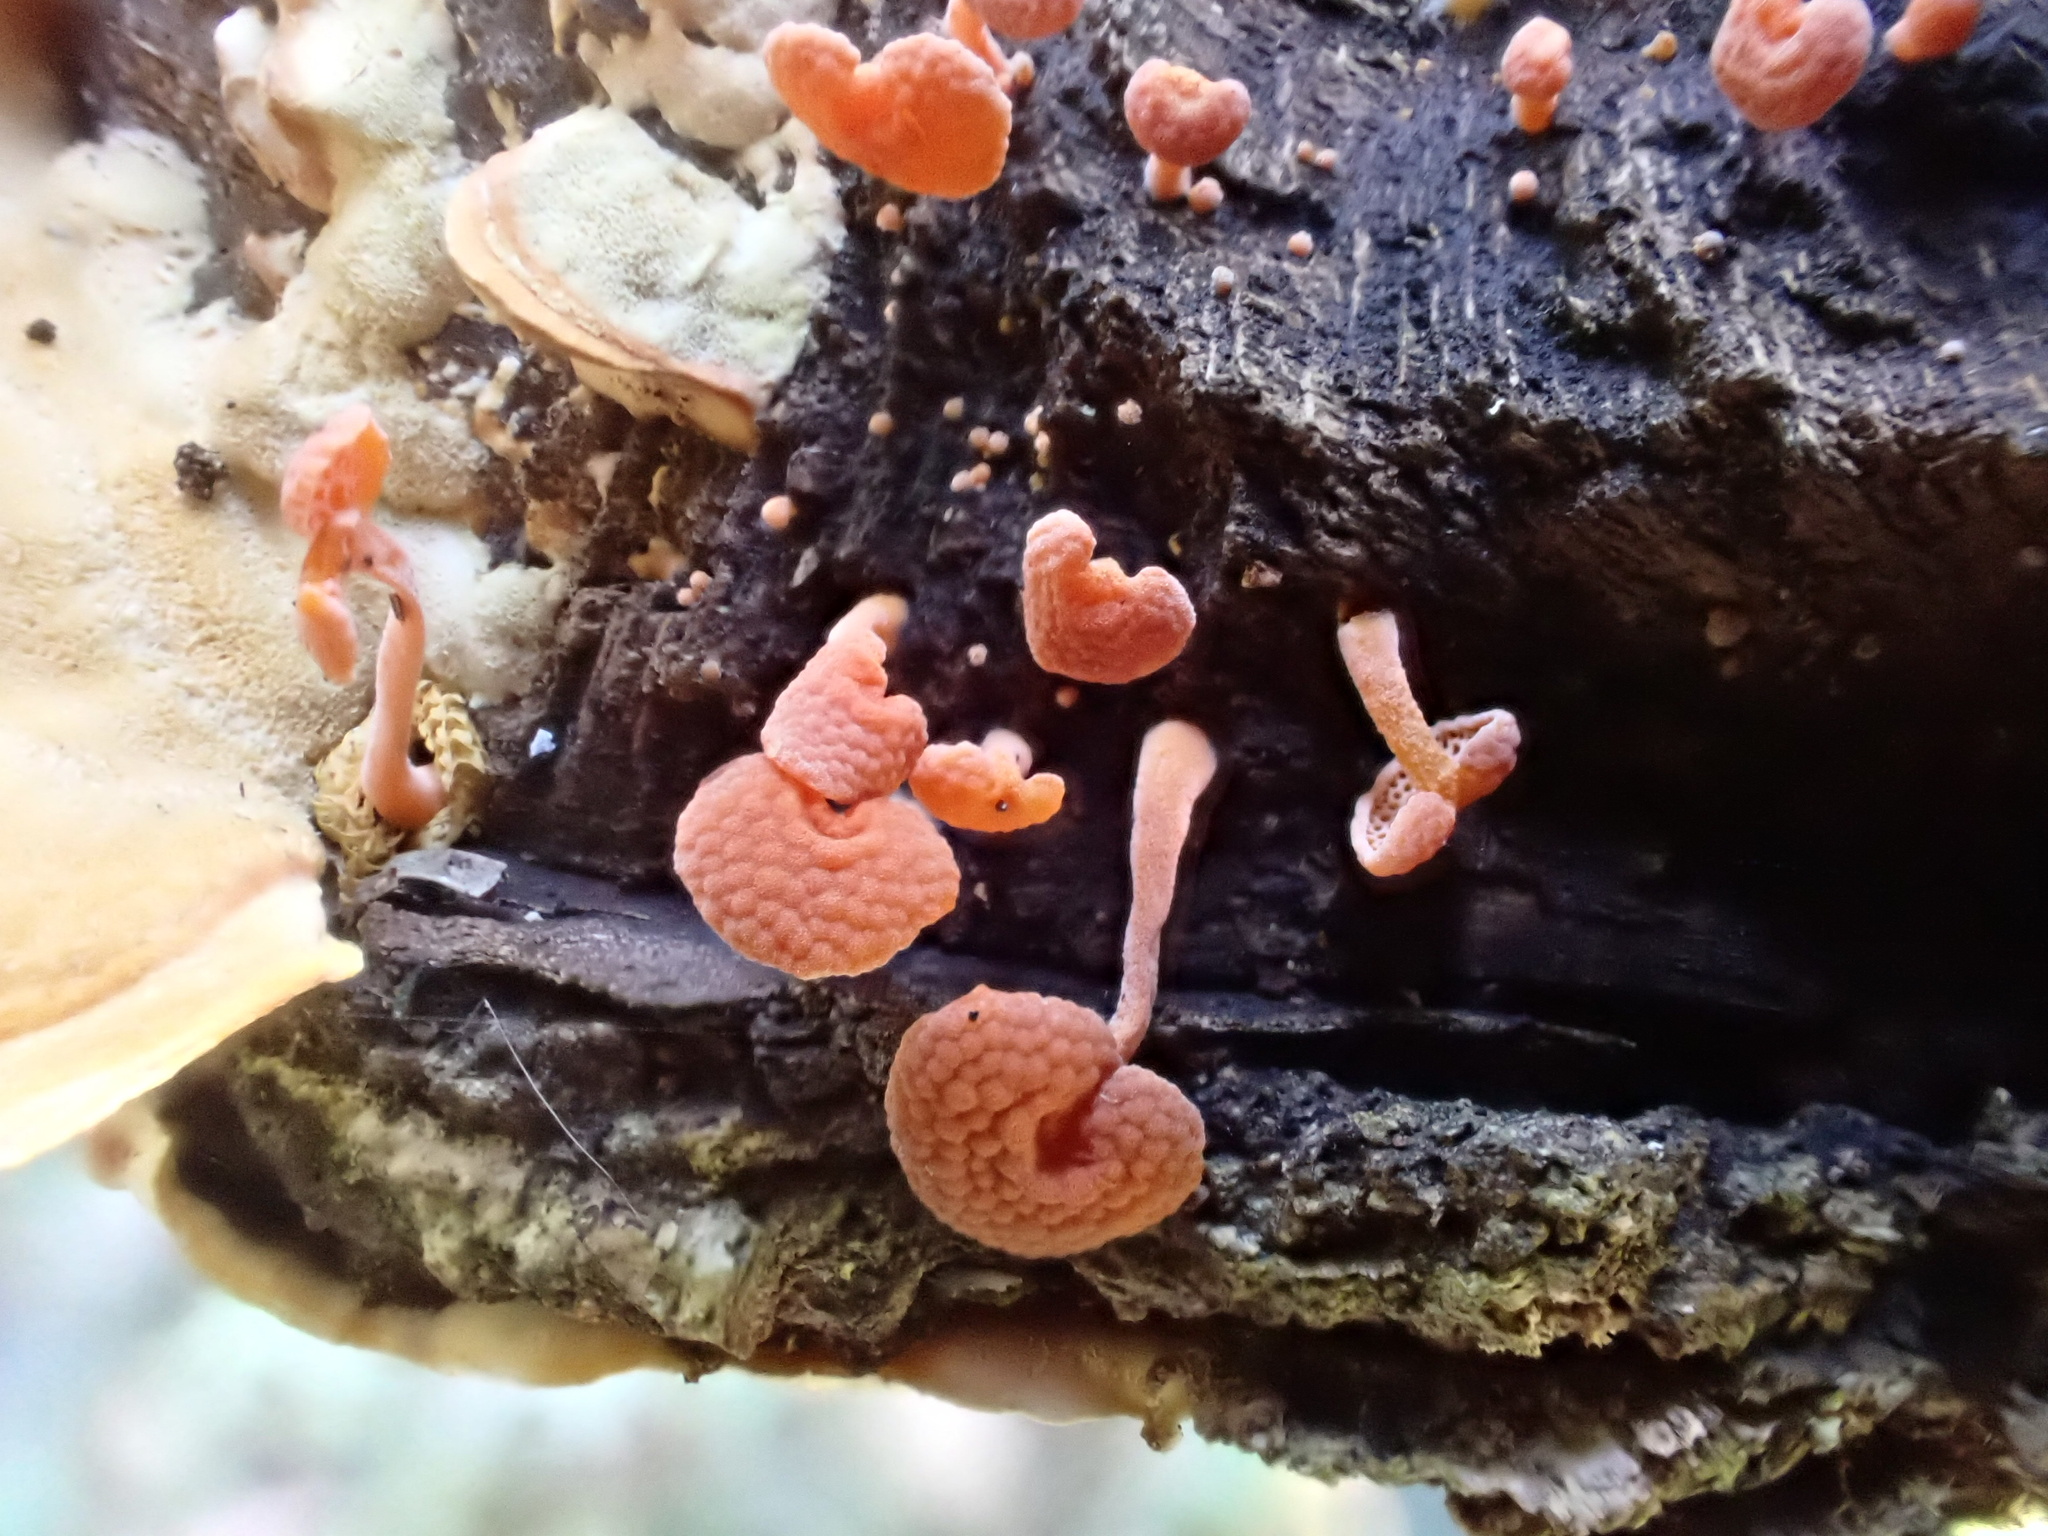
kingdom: Fungi
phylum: Basidiomycota
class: Agaricomycetes
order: Agaricales
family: Mycenaceae
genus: Favolaschia
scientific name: Favolaschia claudopus
